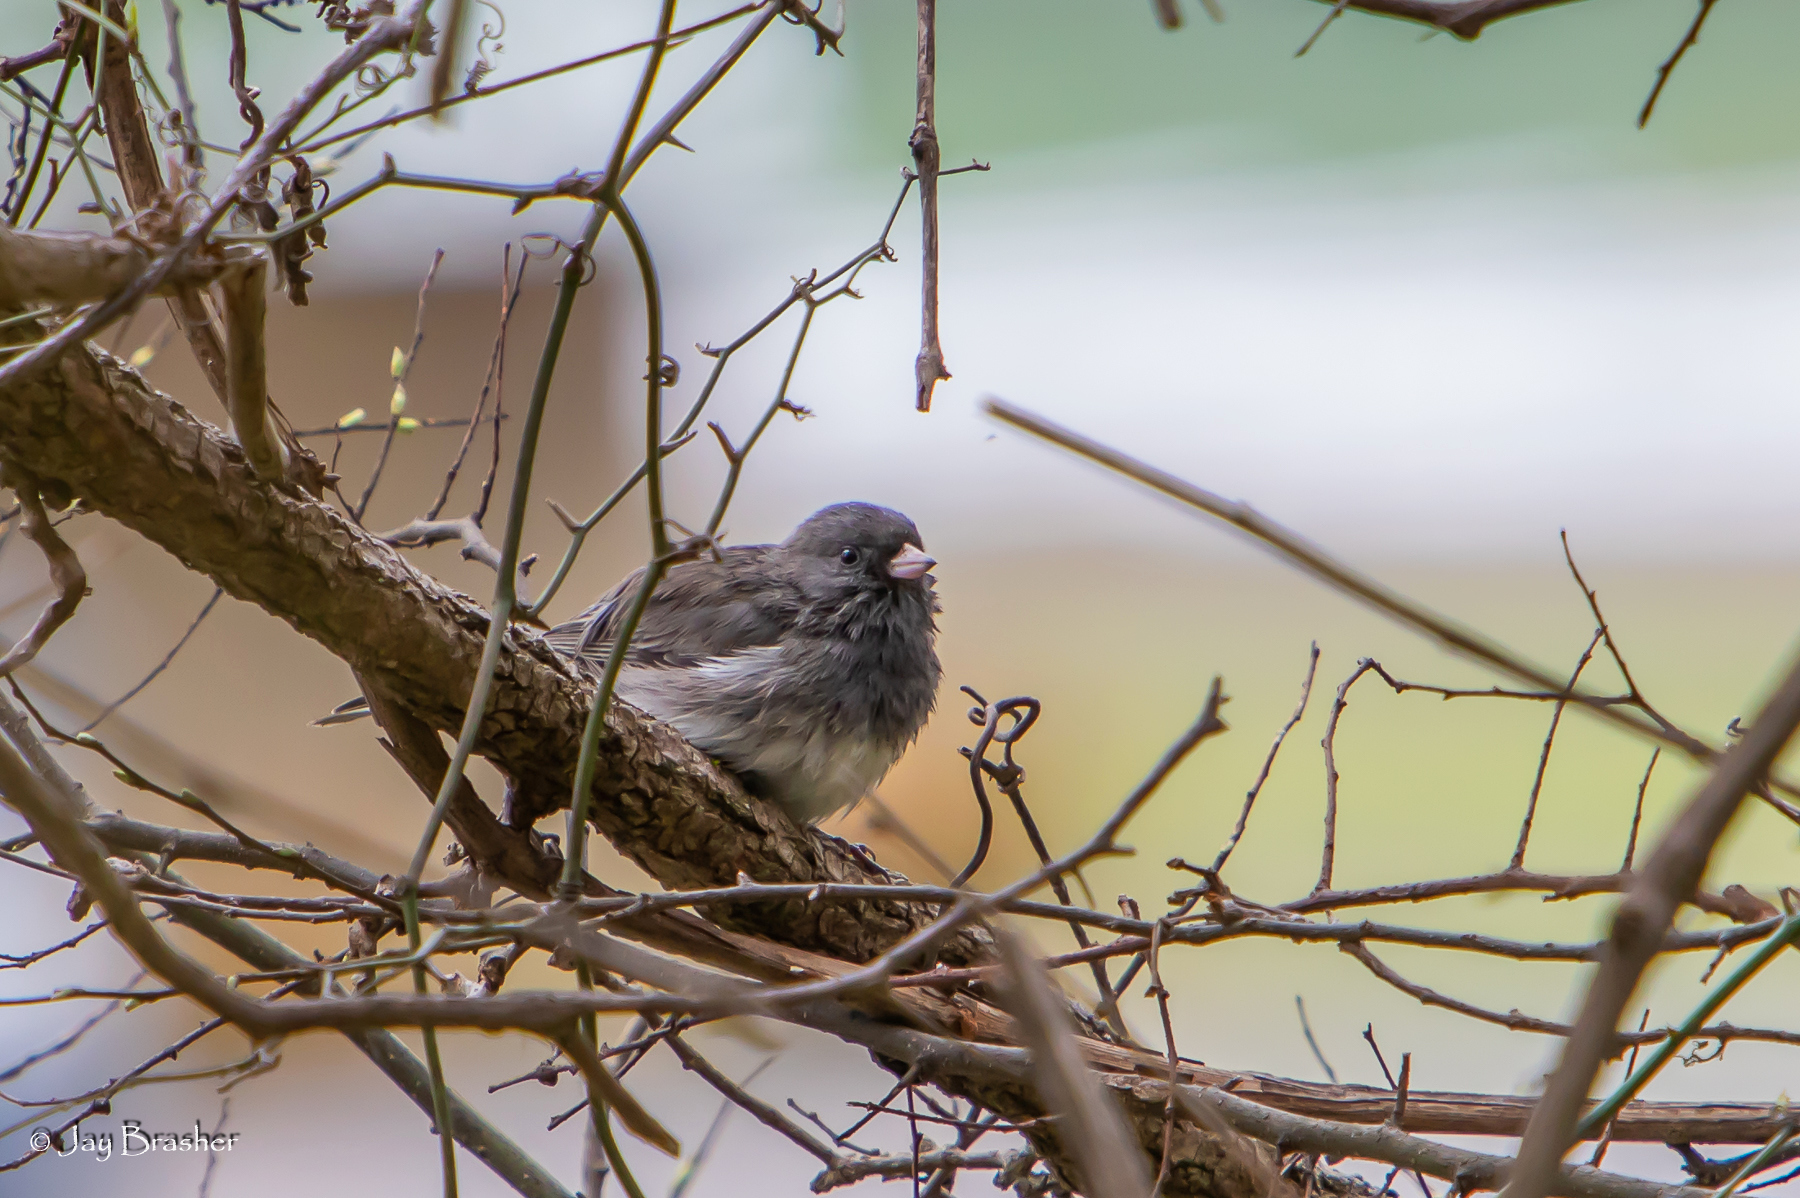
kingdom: Animalia
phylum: Chordata
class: Aves
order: Passeriformes
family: Passerellidae
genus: Junco
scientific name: Junco hyemalis
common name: Dark-eyed junco
